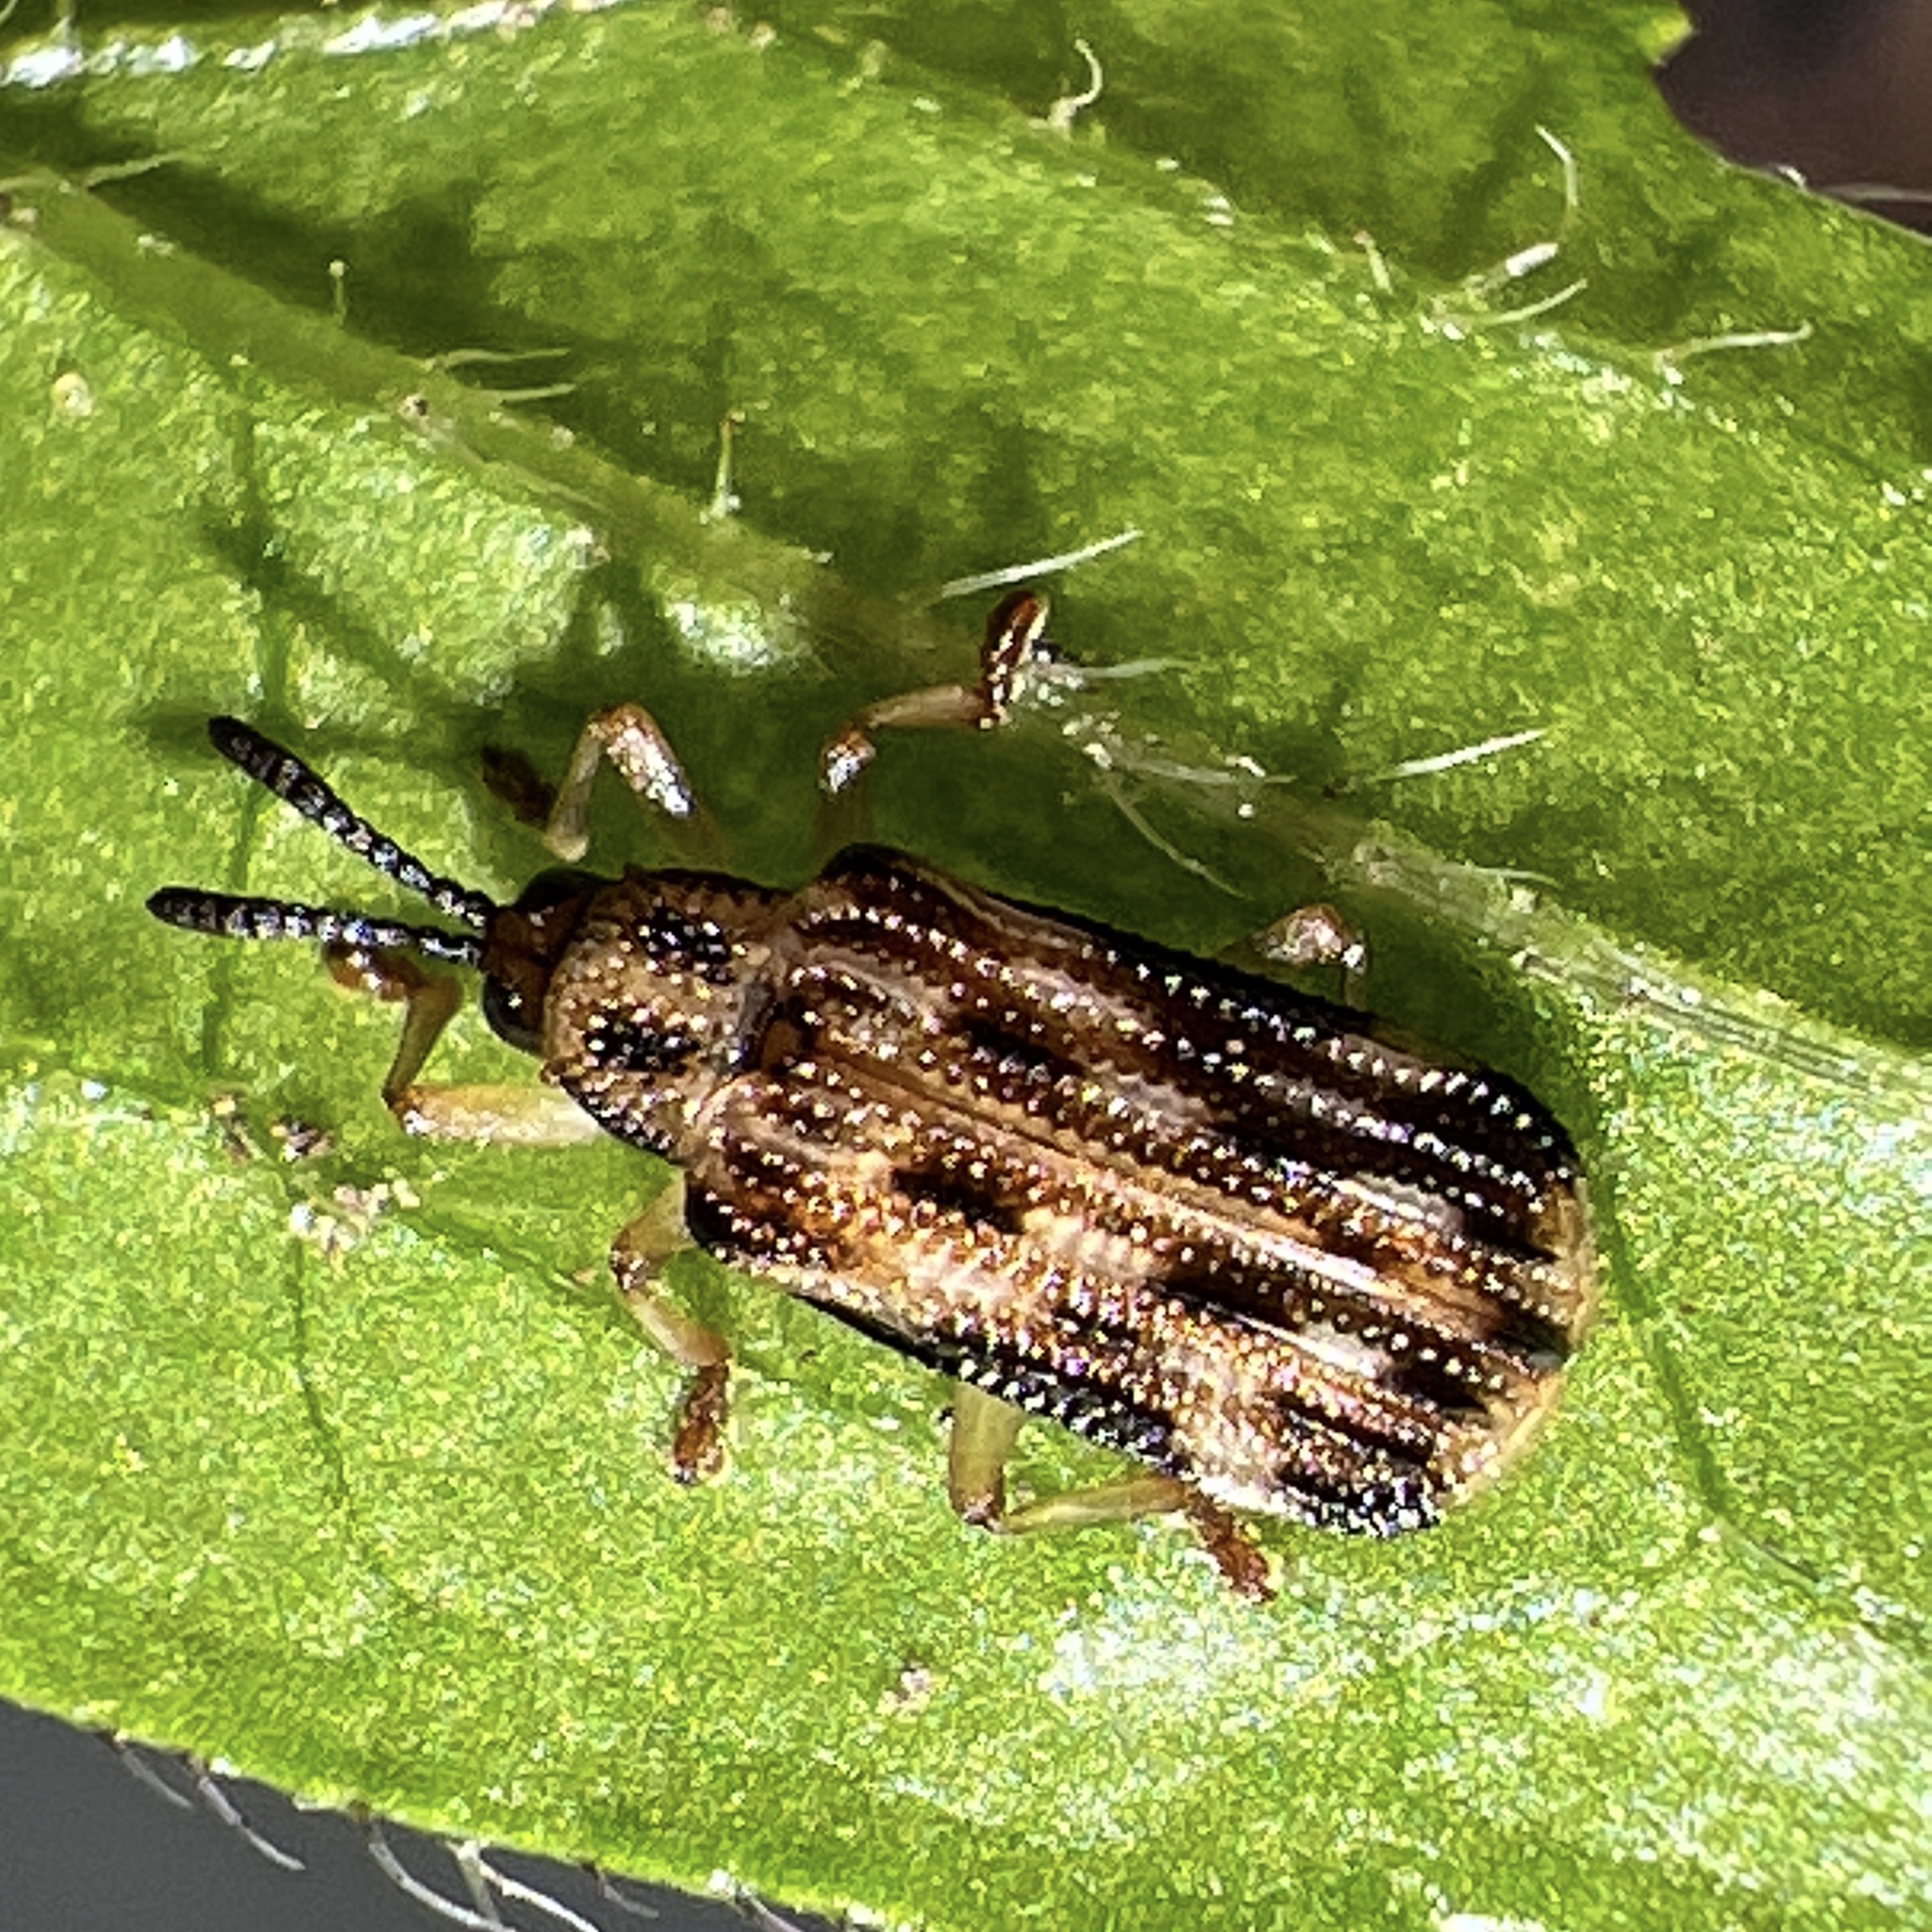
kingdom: Animalia
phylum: Arthropoda
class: Insecta
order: Coleoptera
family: Chrysomelidae
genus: Sumitrosis
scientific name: Sumitrosis inaequalis
